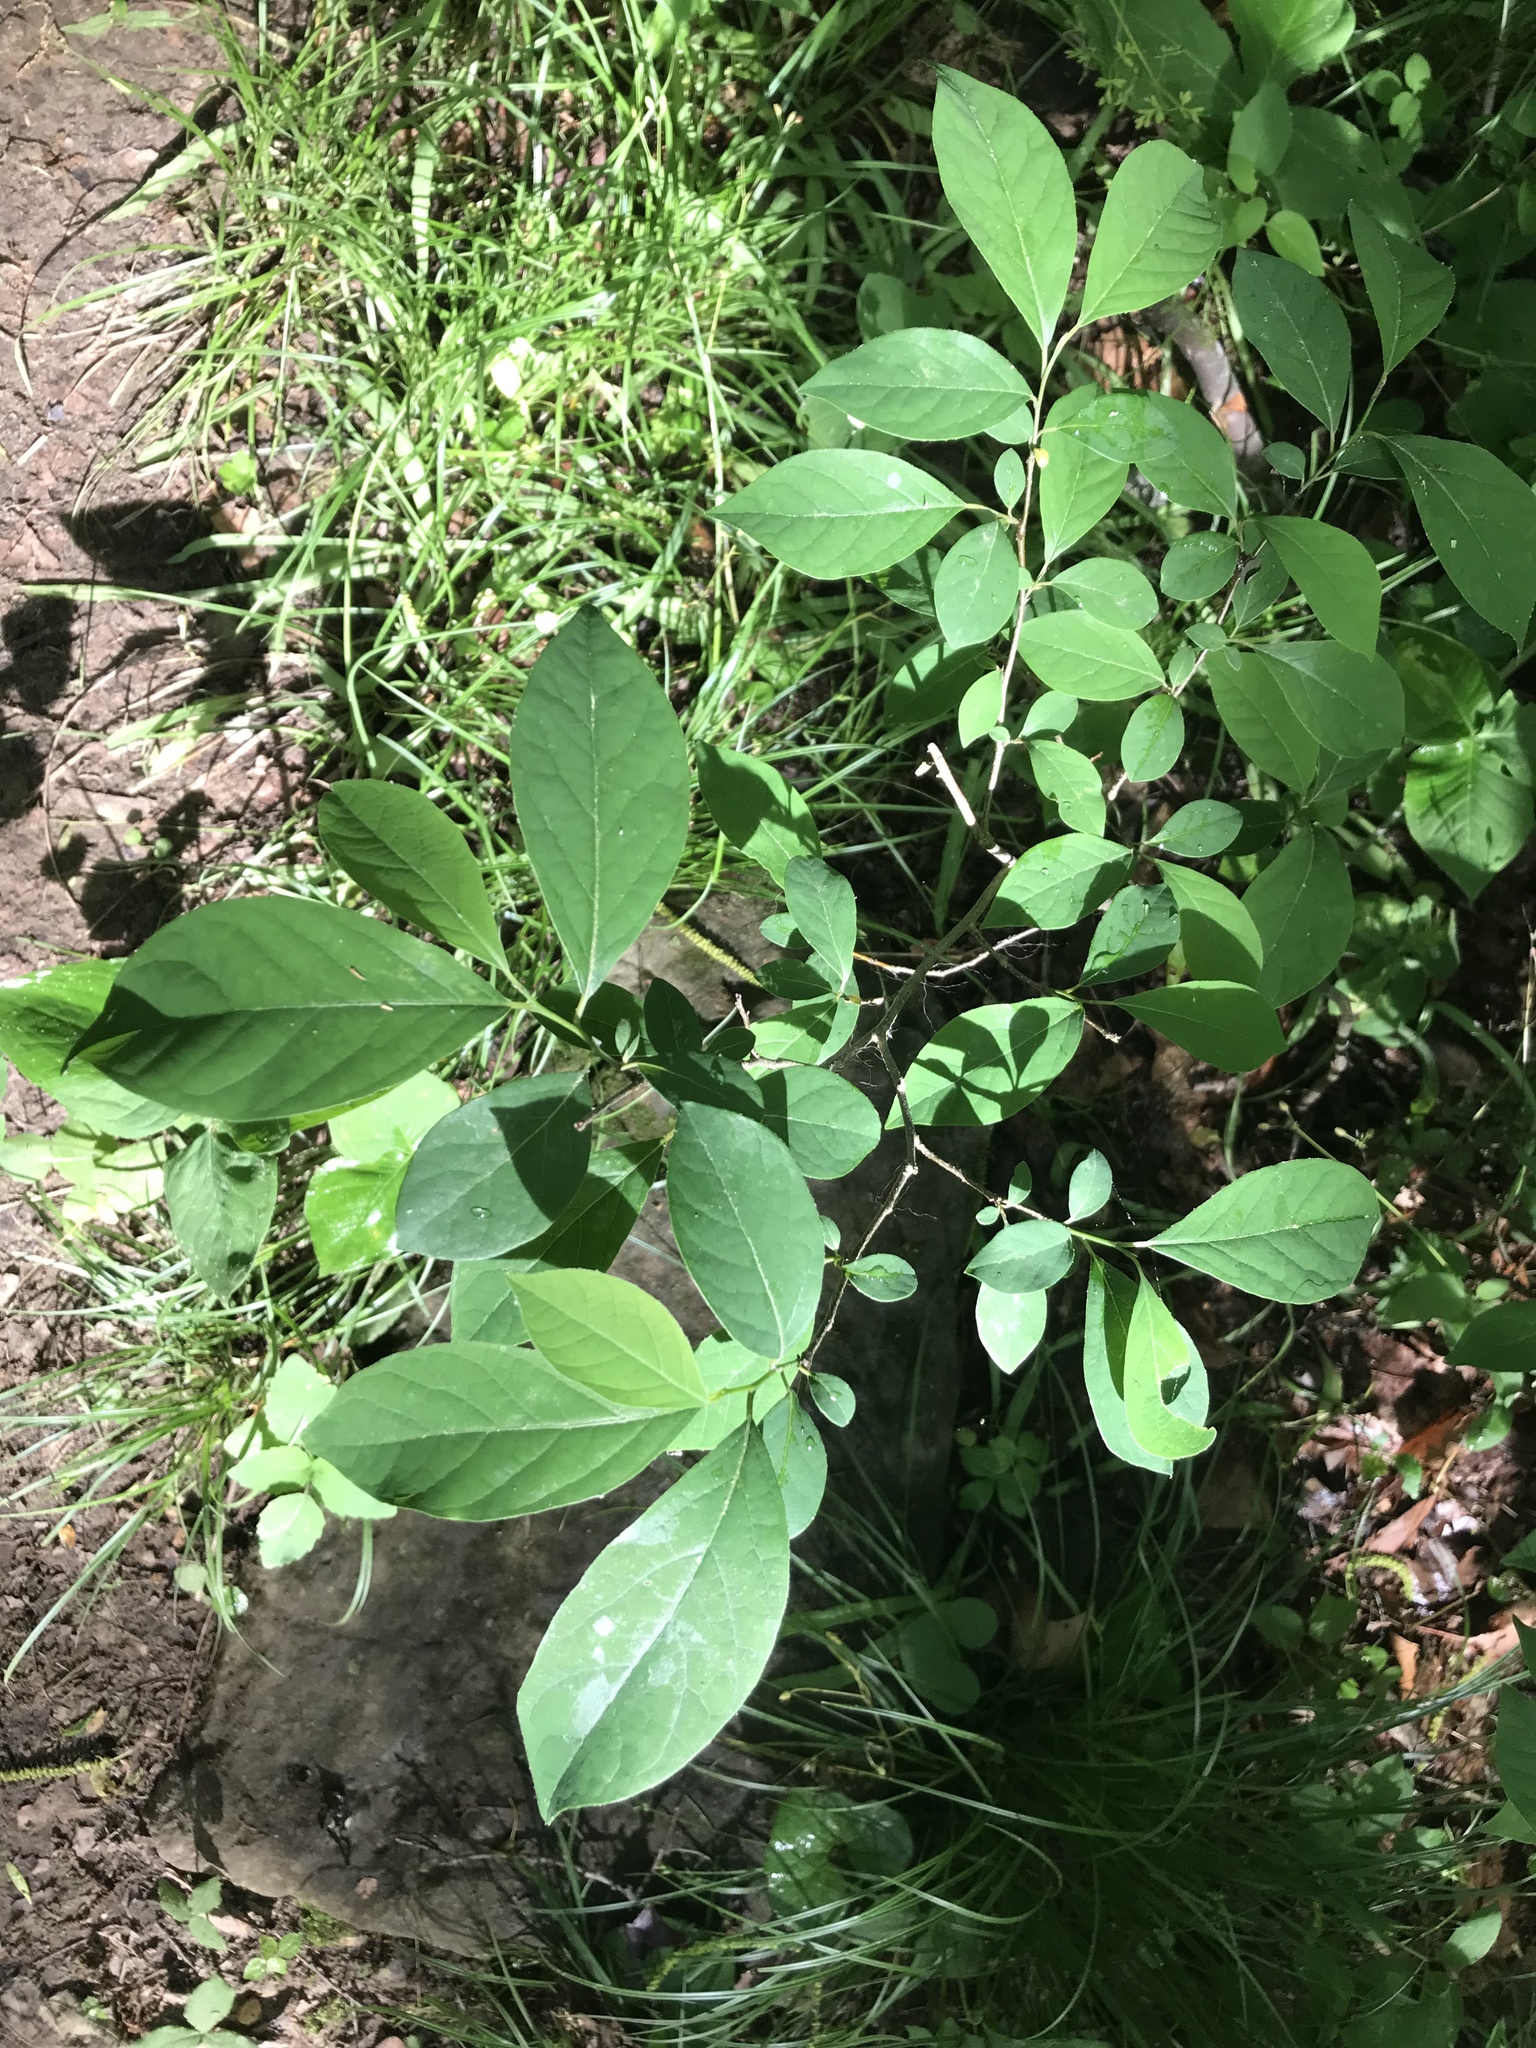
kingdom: Plantae
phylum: Tracheophyta
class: Magnoliopsida
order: Laurales
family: Lauraceae
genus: Lindera
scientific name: Lindera benzoin
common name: Spicebush
